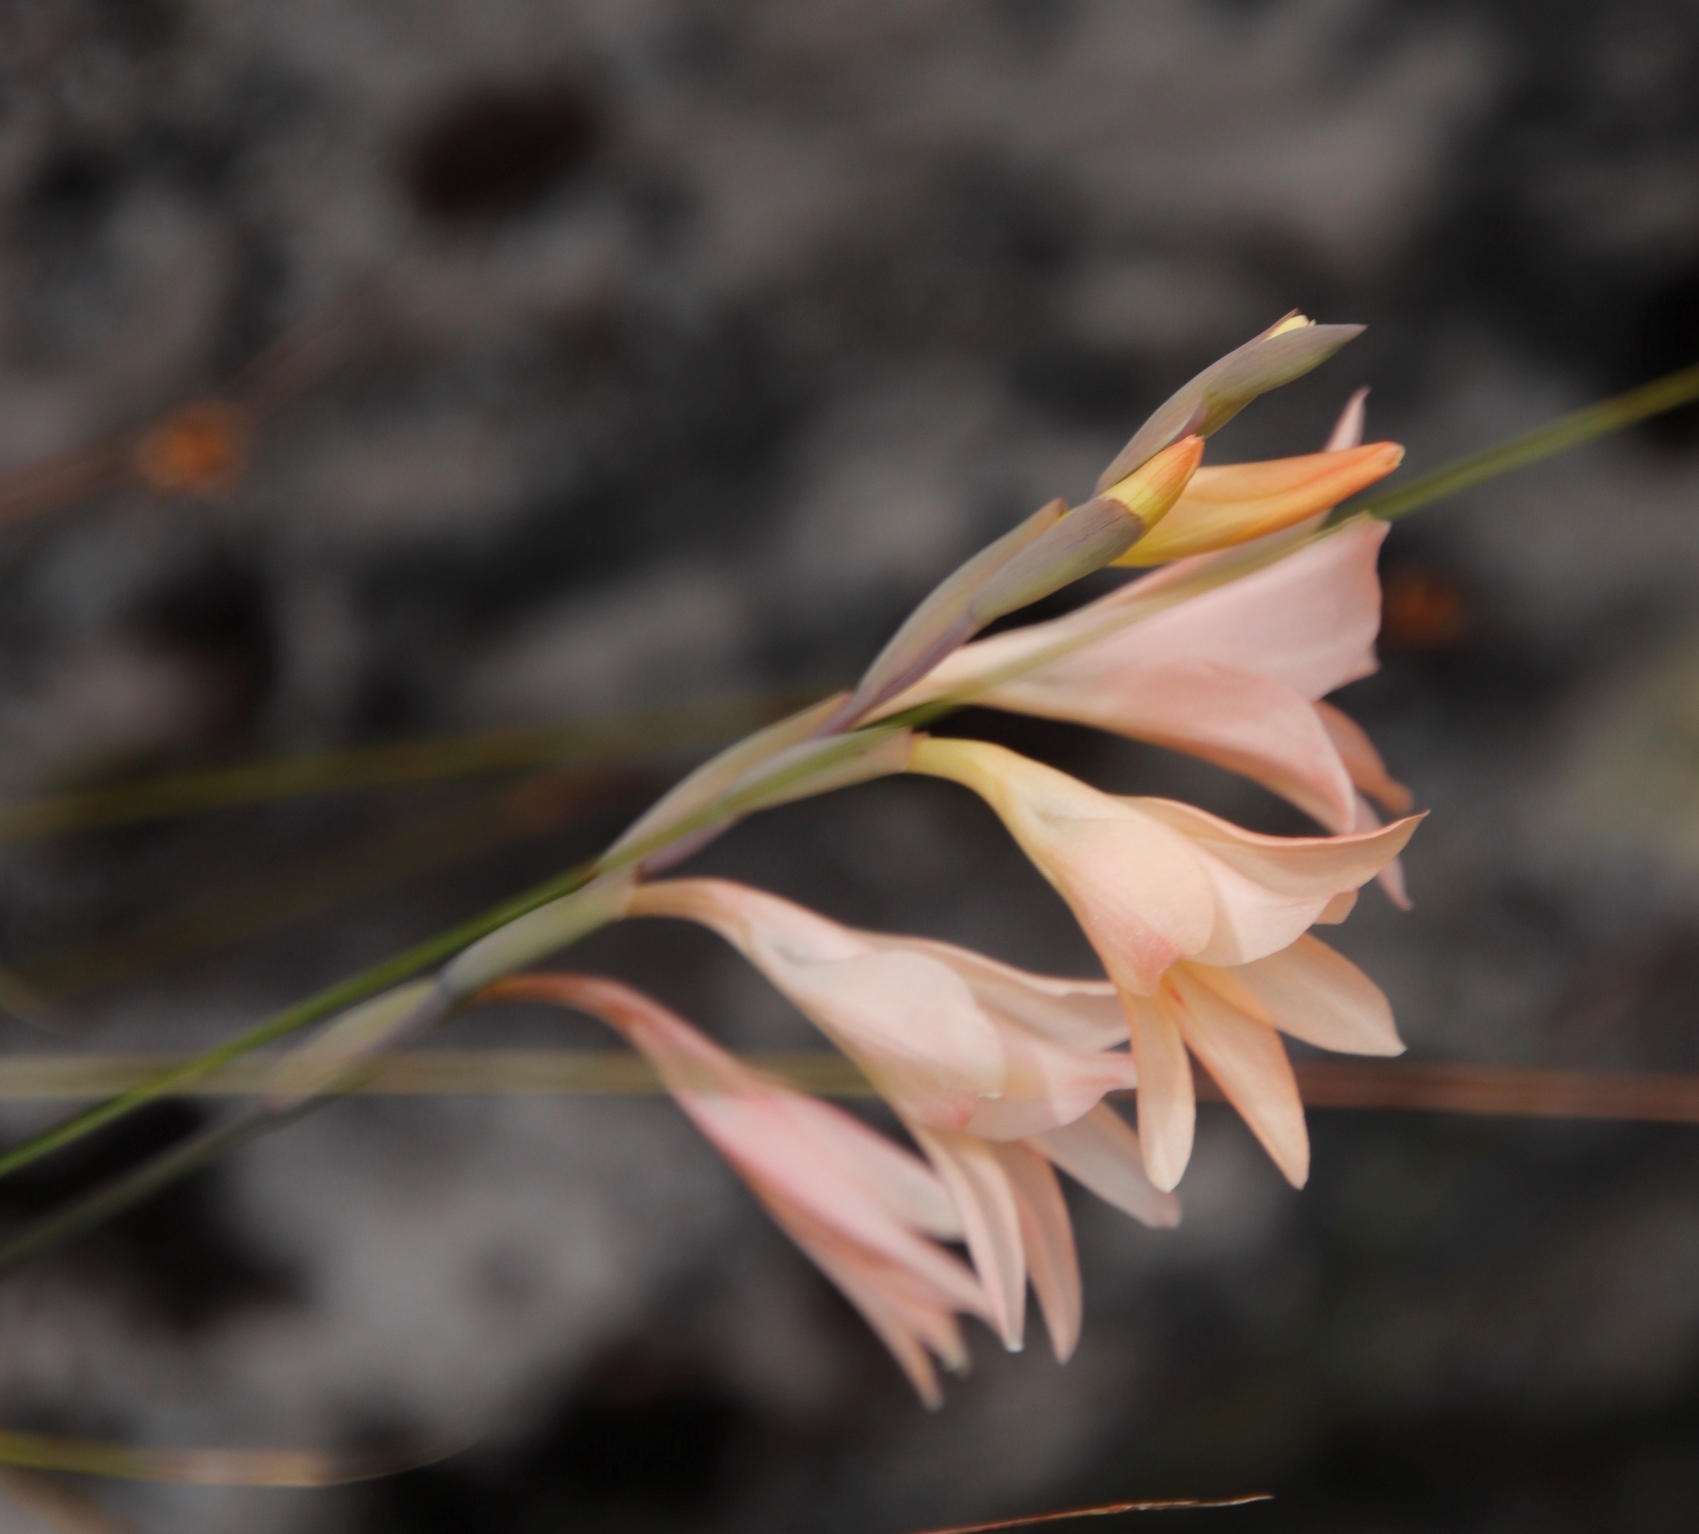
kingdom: Plantae
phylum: Tracheophyta
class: Liliopsida
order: Asparagales
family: Iridaceae
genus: Gladiolus
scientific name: Gladiolus monticola
